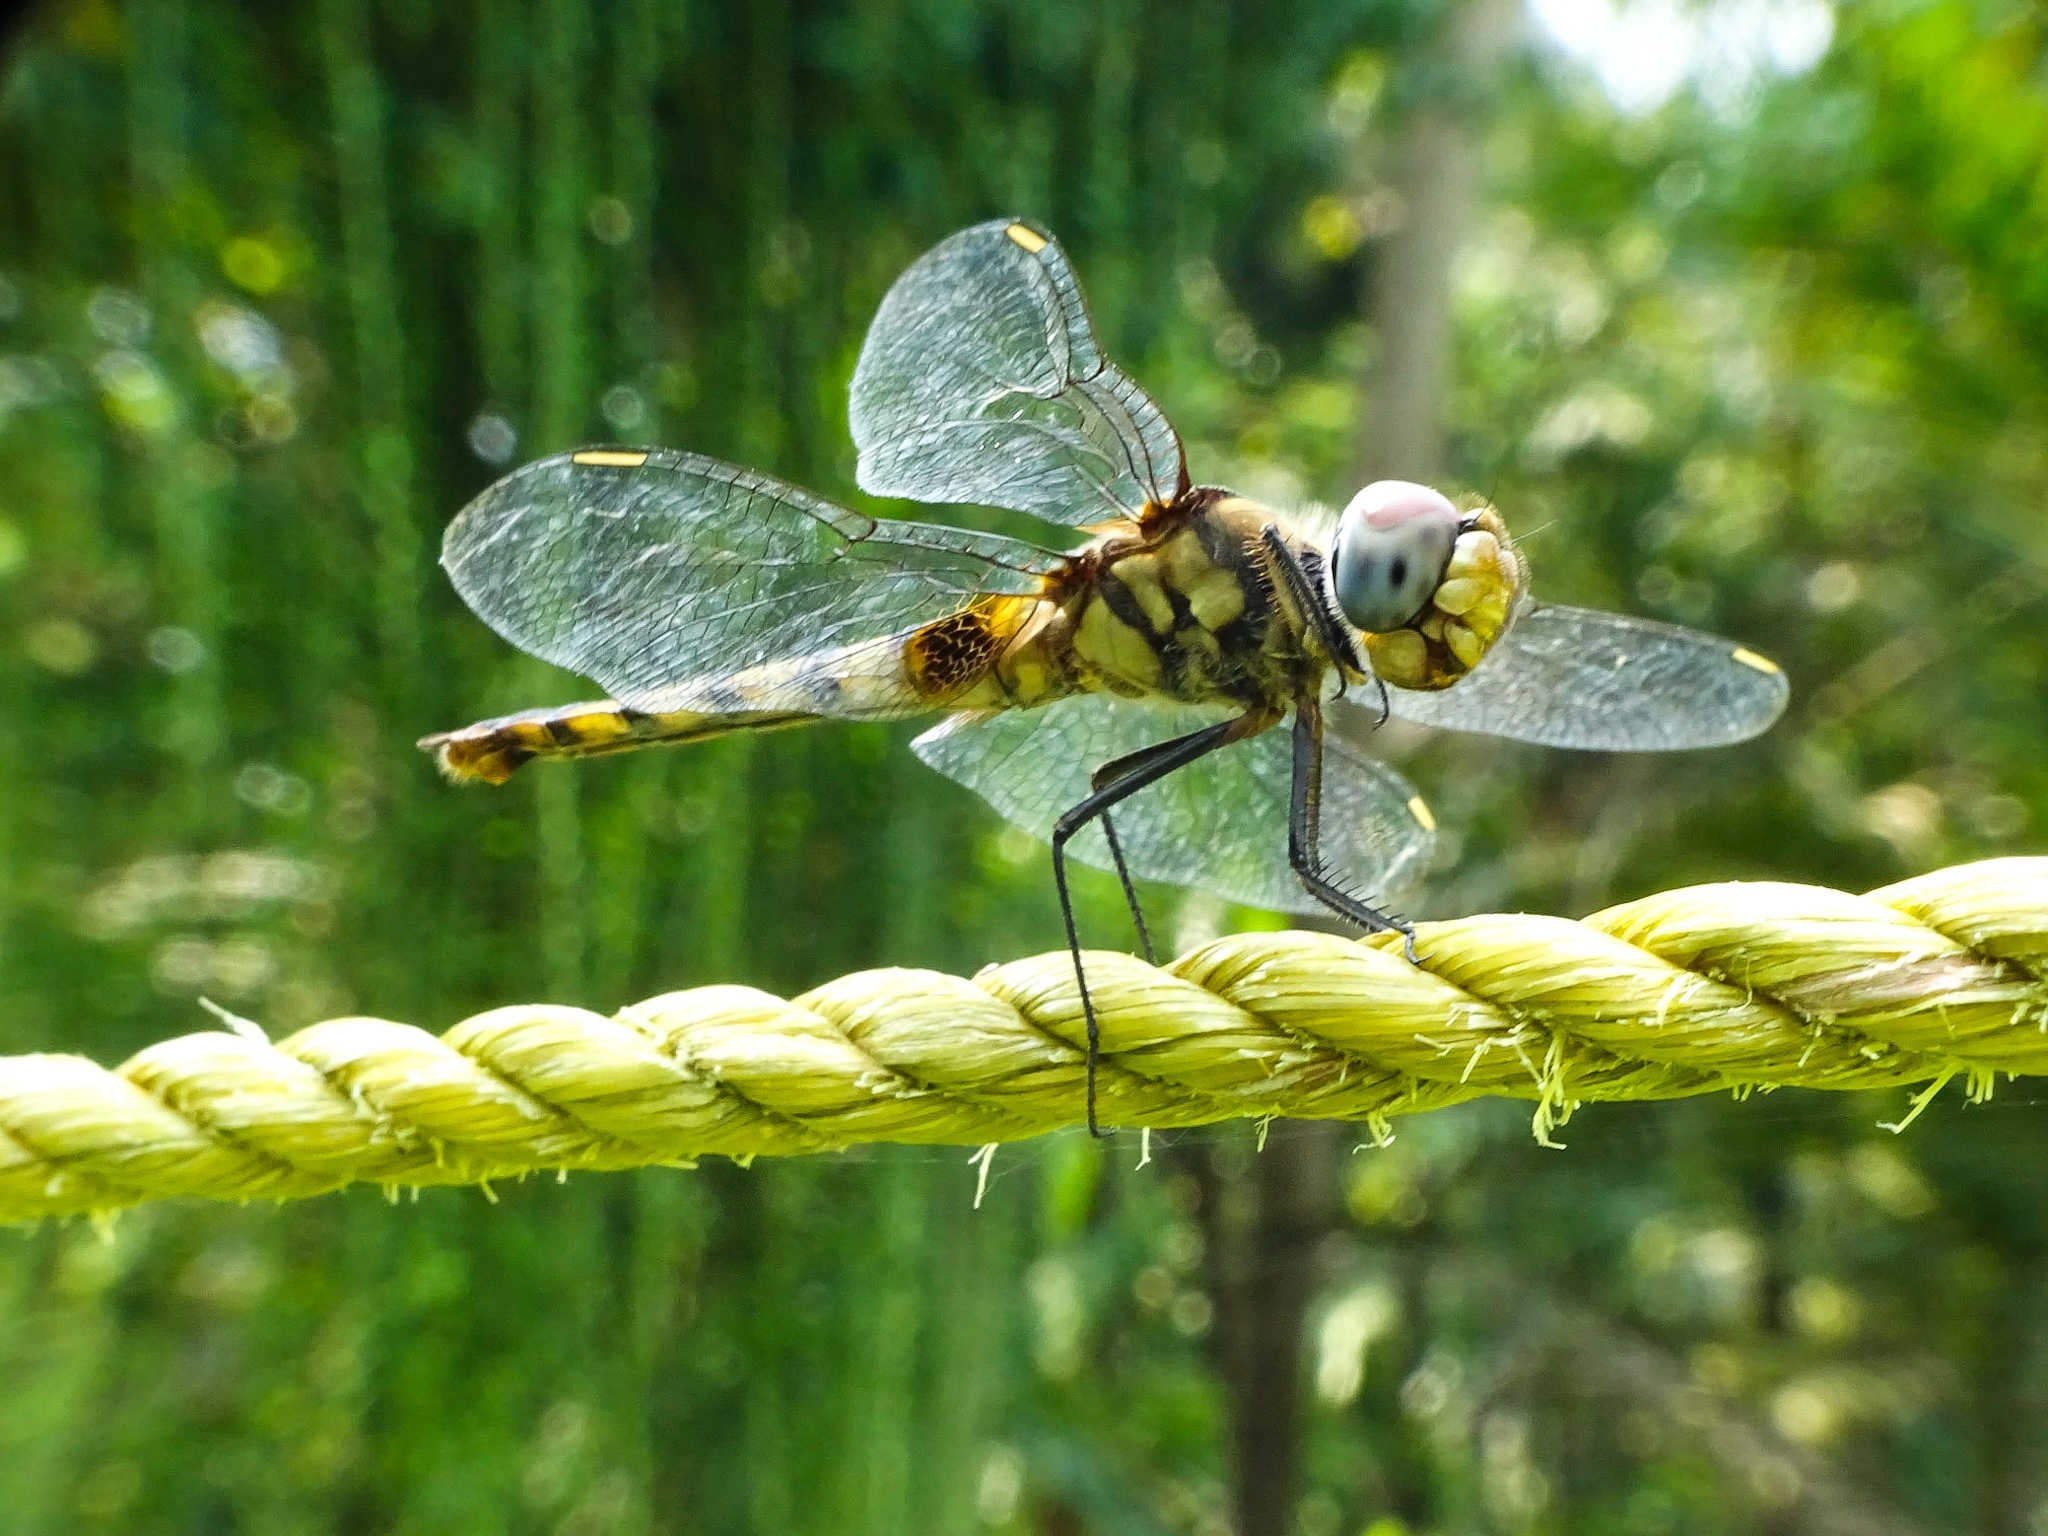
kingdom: Animalia
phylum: Arthropoda
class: Insecta
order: Odonata
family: Libellulidae
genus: Urothemis
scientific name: Urothemis signata
